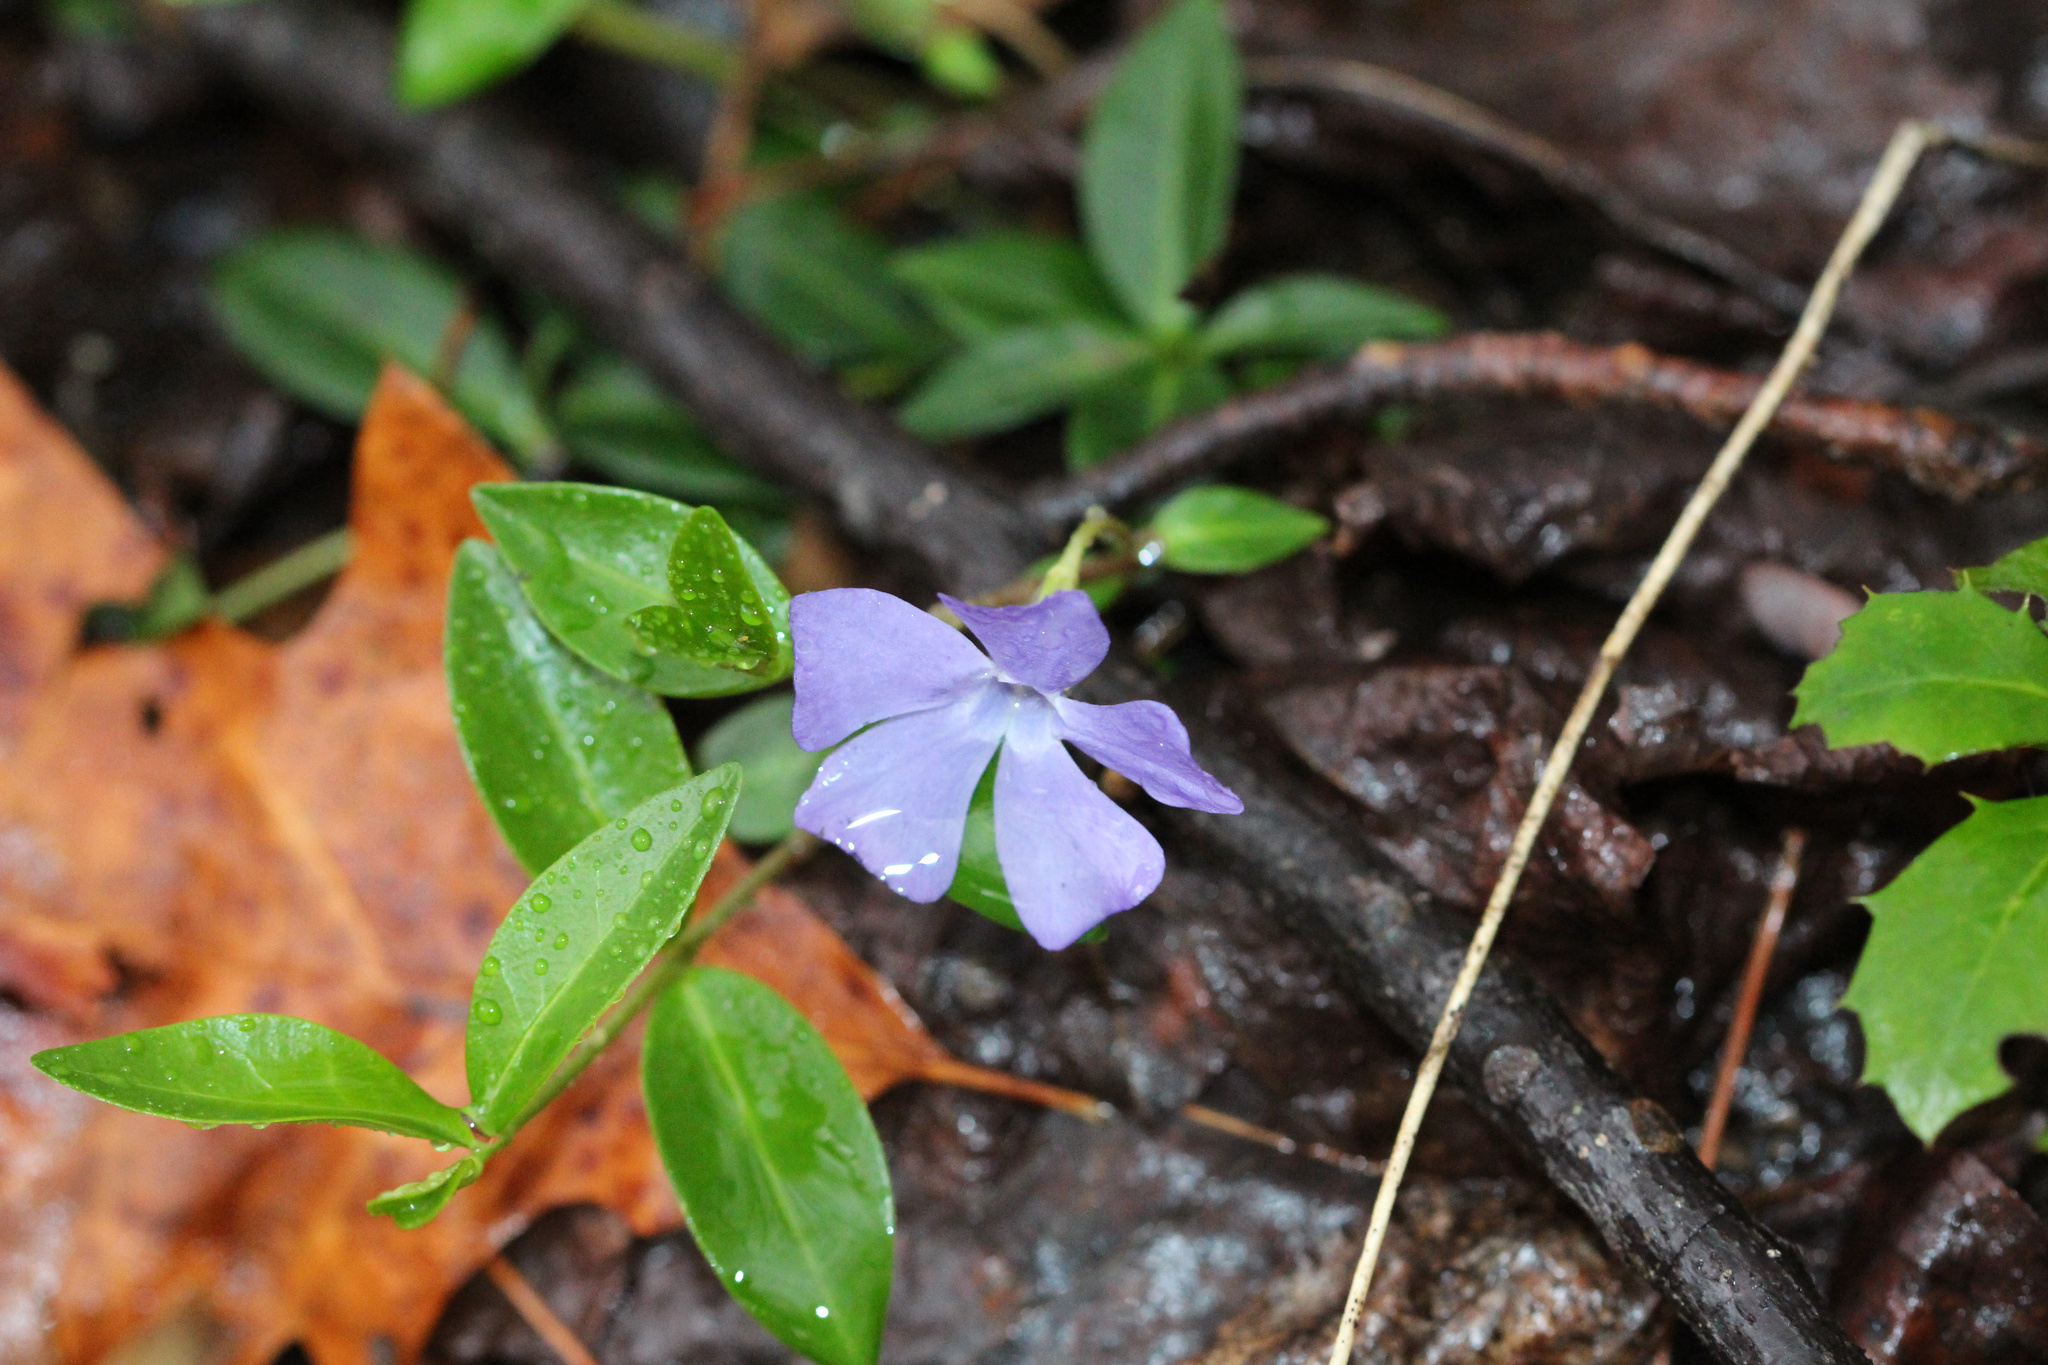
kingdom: Plantae
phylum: Tracheophyta
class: Magnoliopsida
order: Gentianales
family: Apocynaceae
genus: Vinca
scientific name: Vinca minor
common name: Lesser periwinkle
